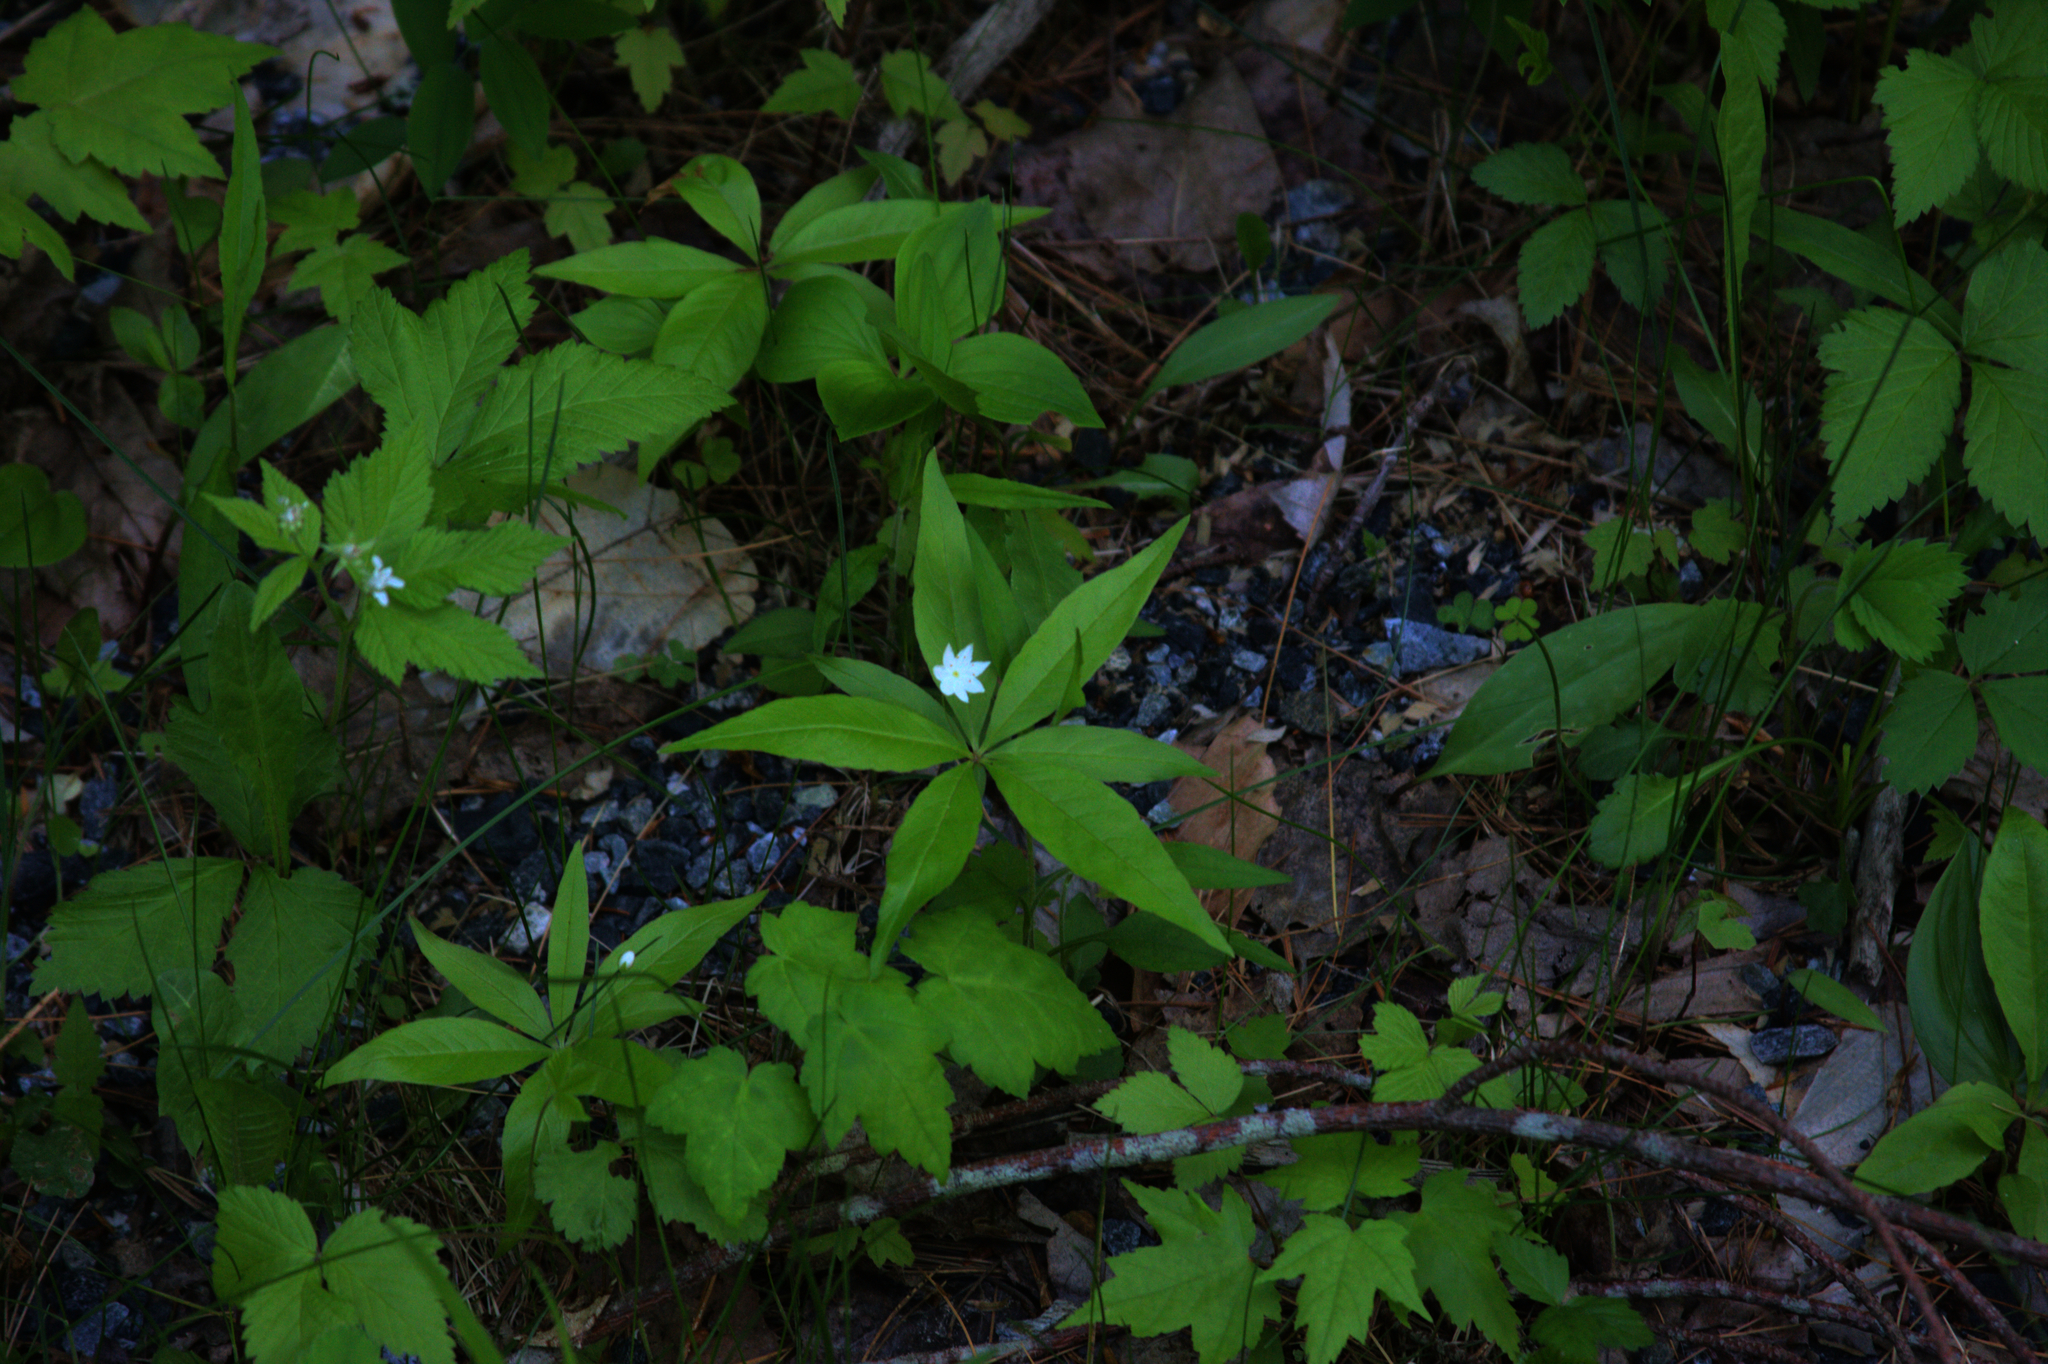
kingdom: Plantae
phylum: Tracheophyta
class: Magnoliopsida
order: Ericales
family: Primulaceae
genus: Lysimachia
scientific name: Lysimachia borealis
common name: American starflower
